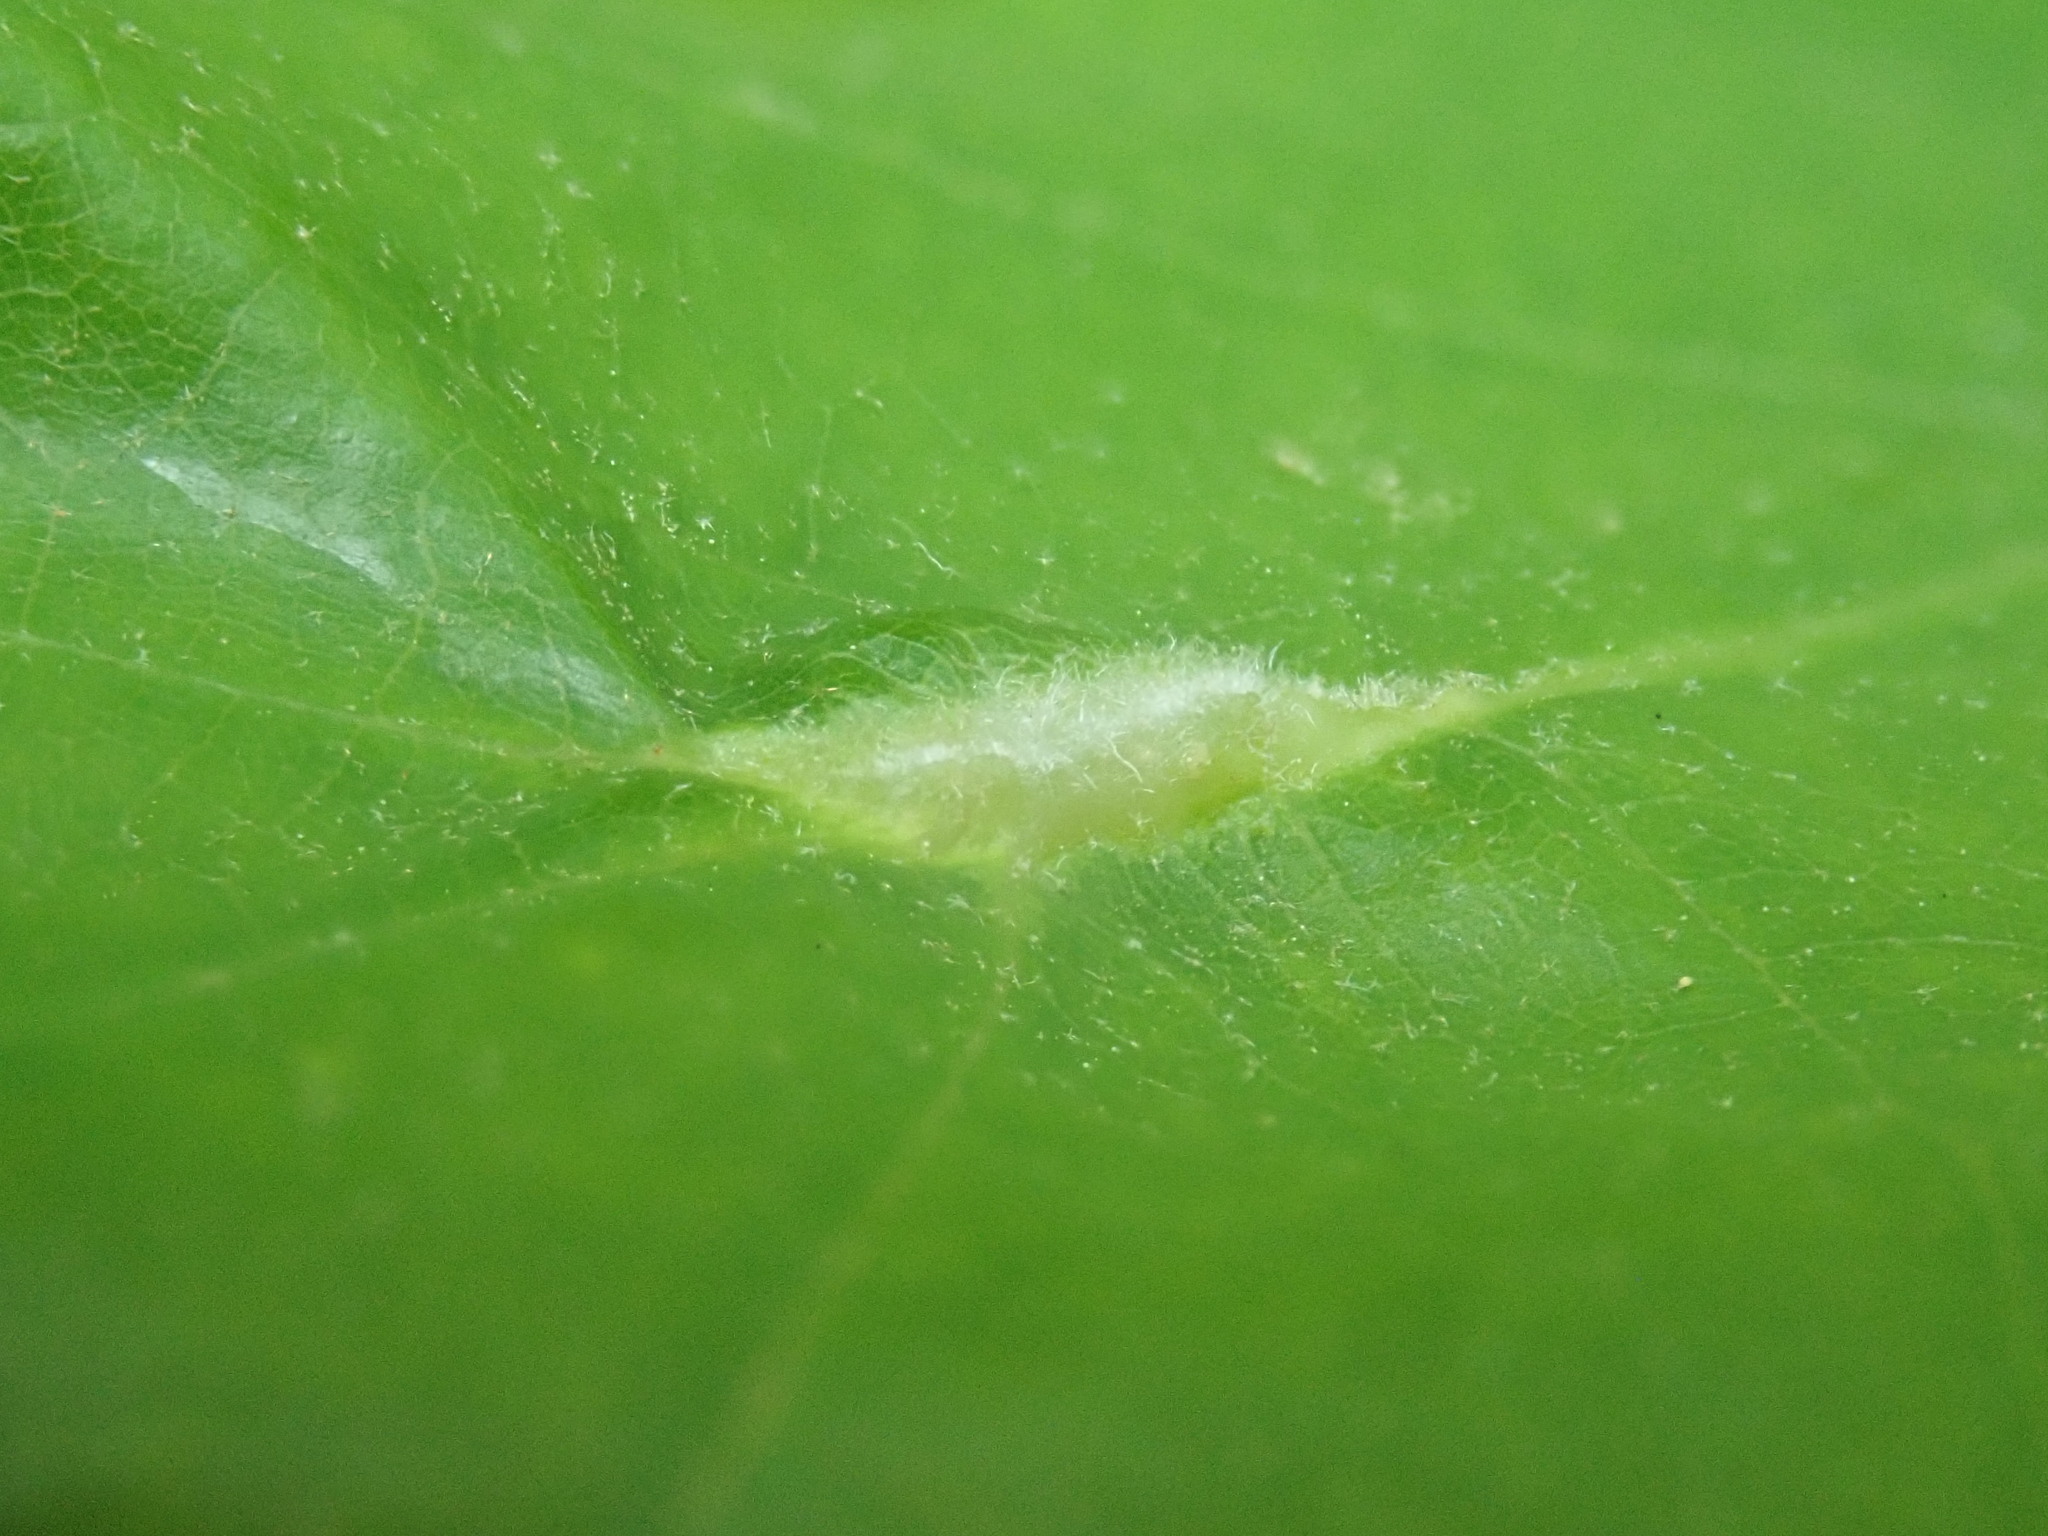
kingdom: Animalia
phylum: Arthropoda
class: Insecta
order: Diptera
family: Cecidomyiidae
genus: Macrodiplosis
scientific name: Macrodiplosis niveipila
